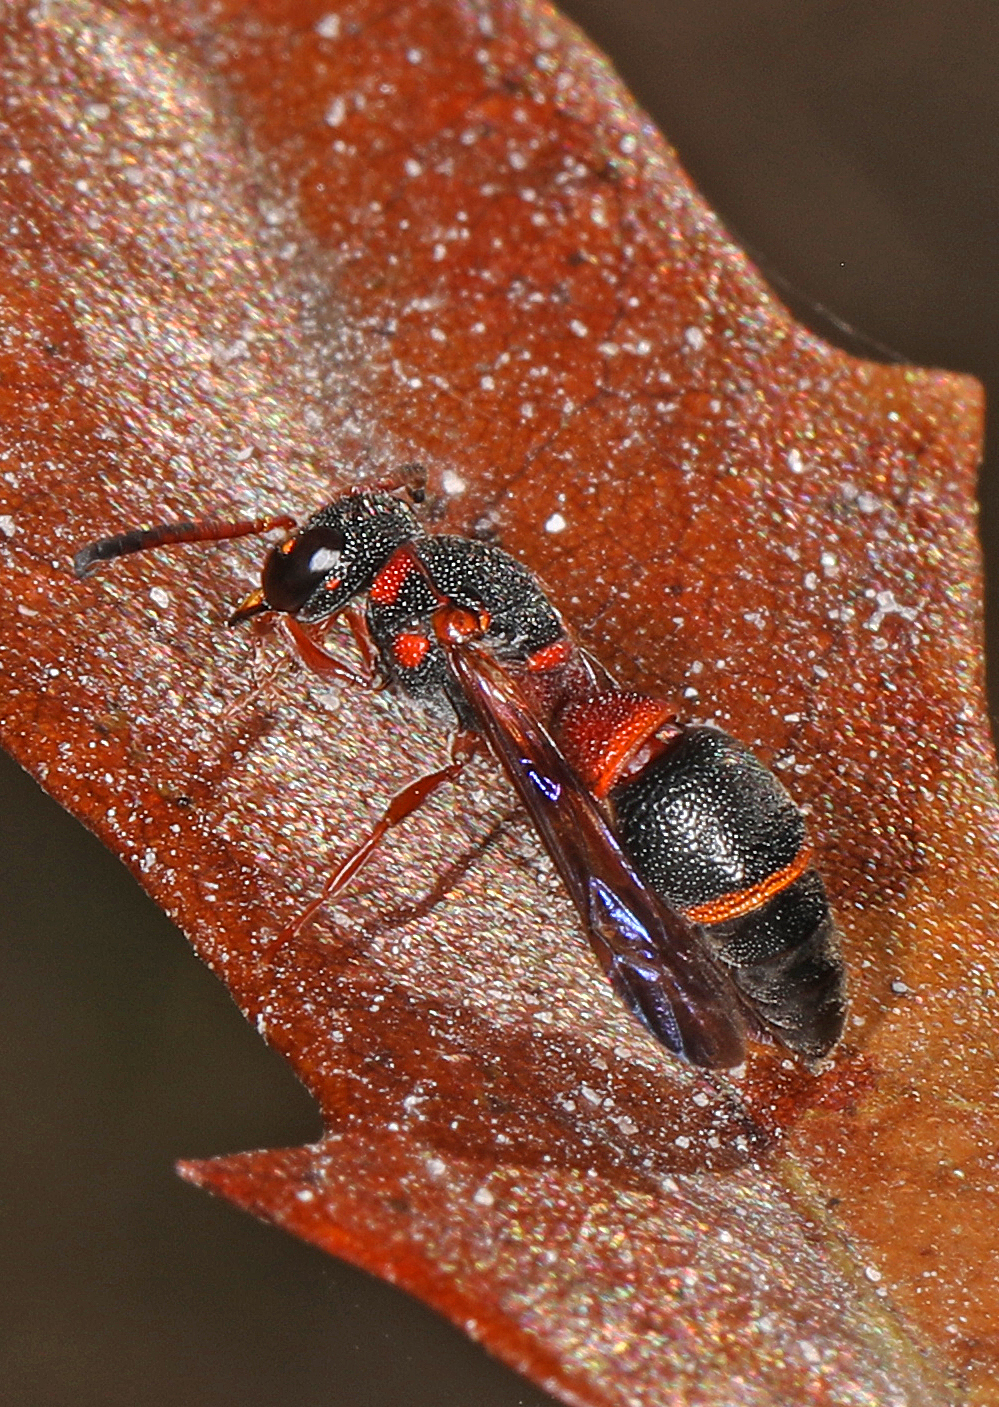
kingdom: Animalia
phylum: Arthropoda
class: Insecta
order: Hymenoptera
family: Eumenidae
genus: Parancistrocerus
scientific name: Parancistrocerus perennis
